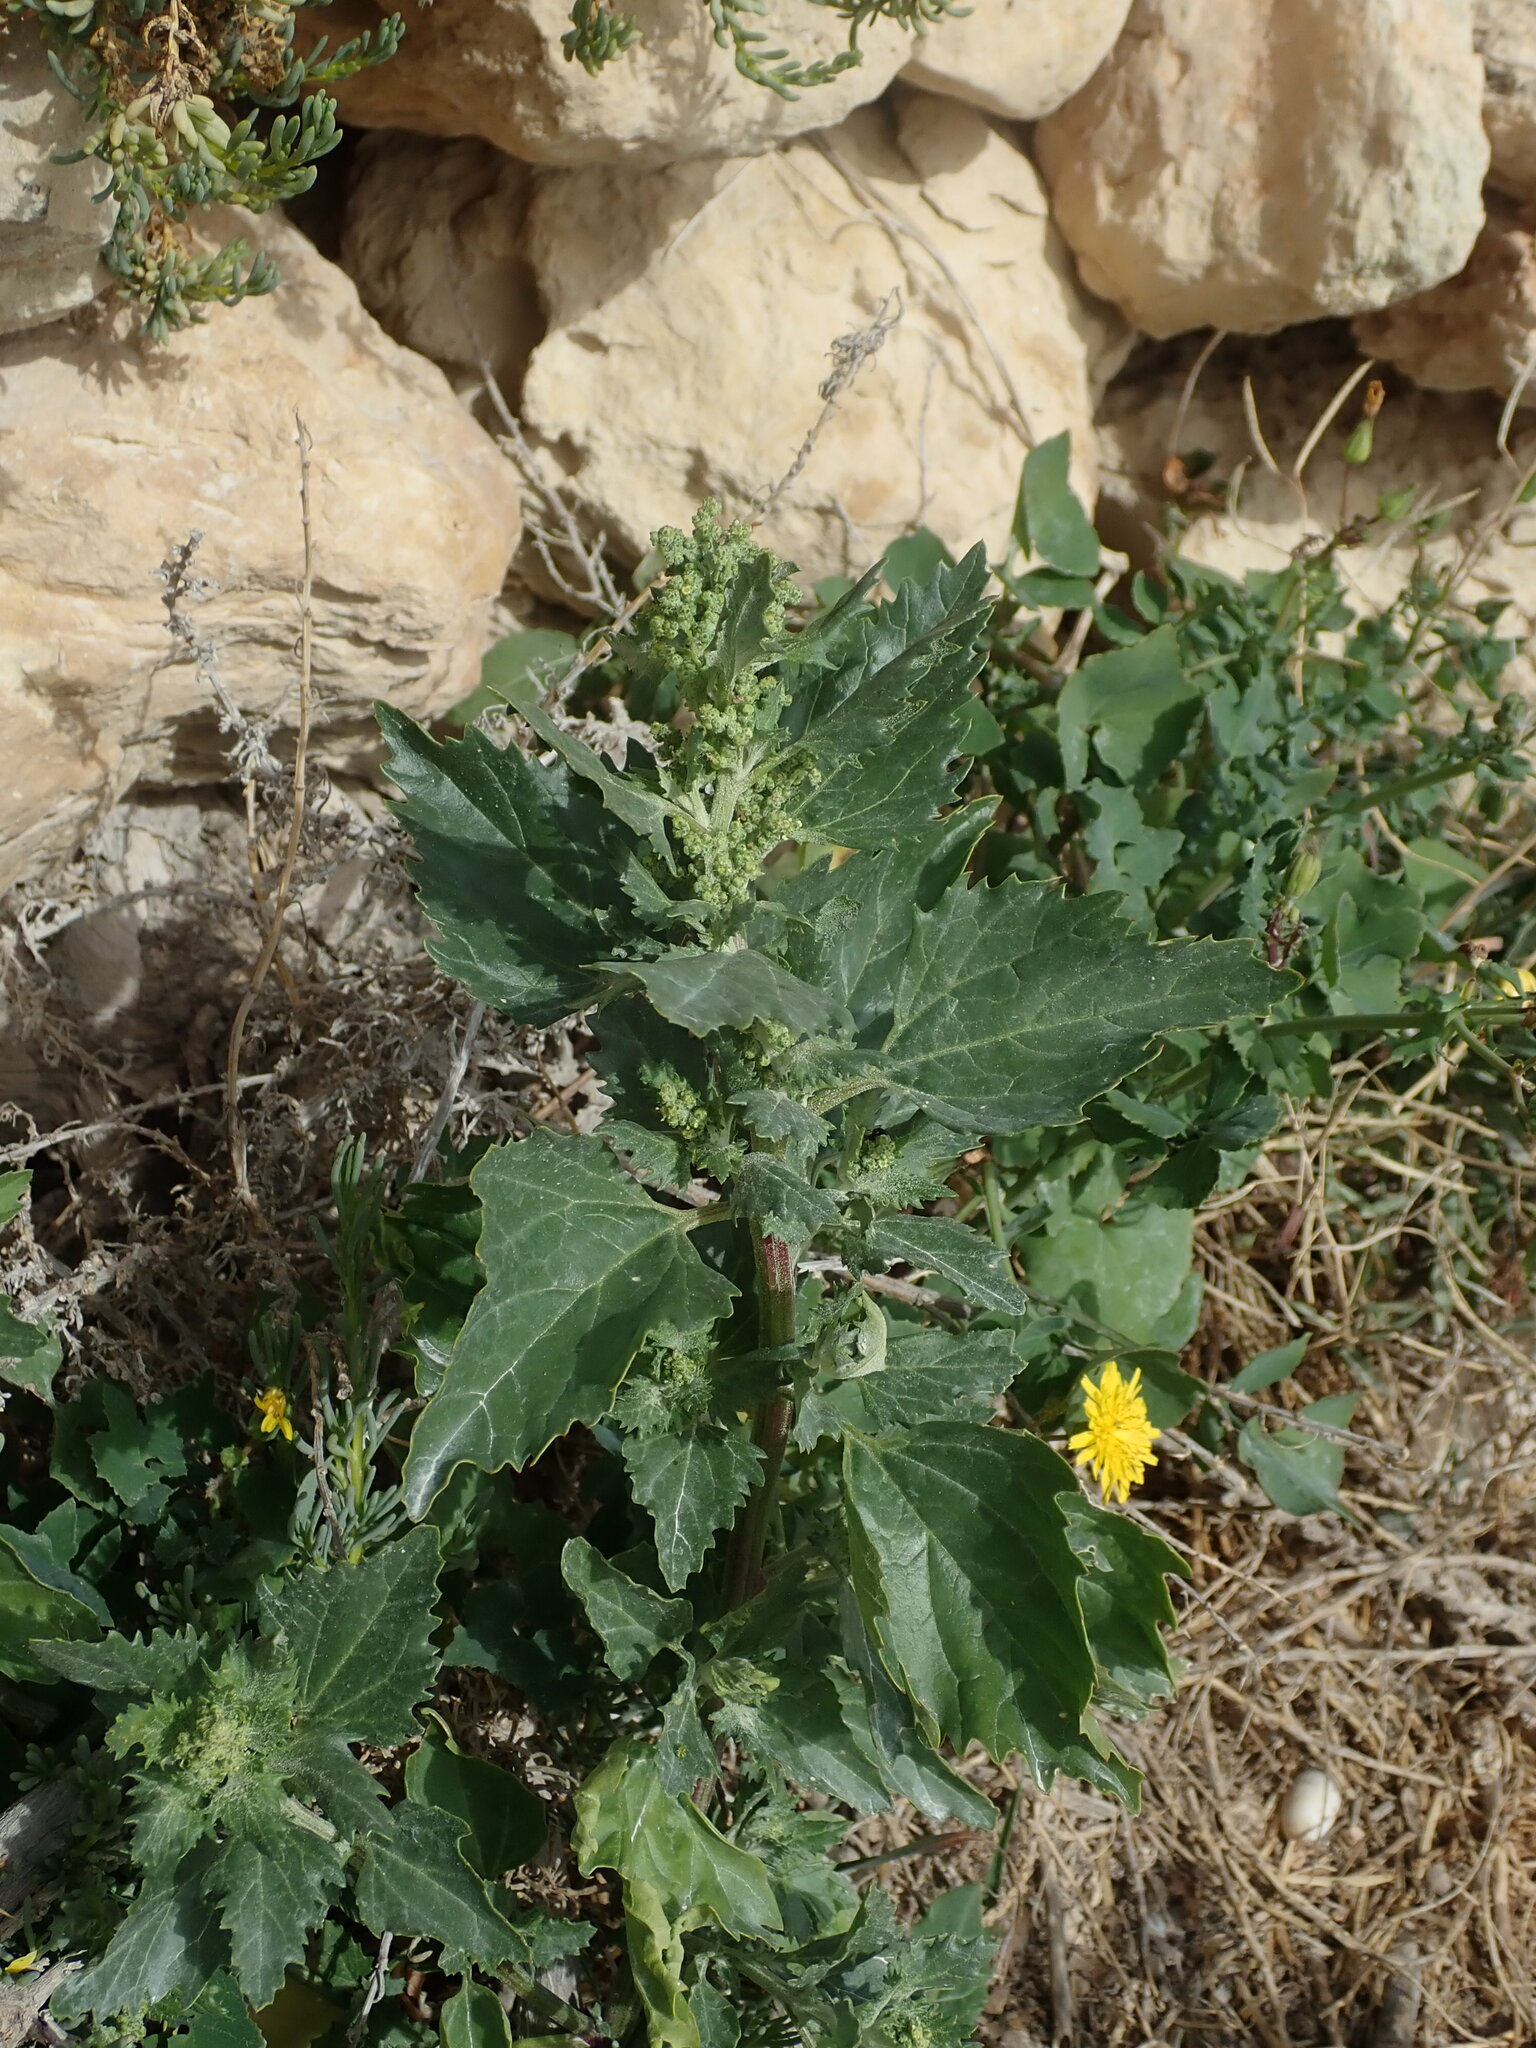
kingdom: Plantae
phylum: Tracheophyta
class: Magnoliopsida
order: Caryophyllales
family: Amaranthaceae
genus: Chenopodiastrum
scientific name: Chenopodiastrum murale
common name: Sowbane
